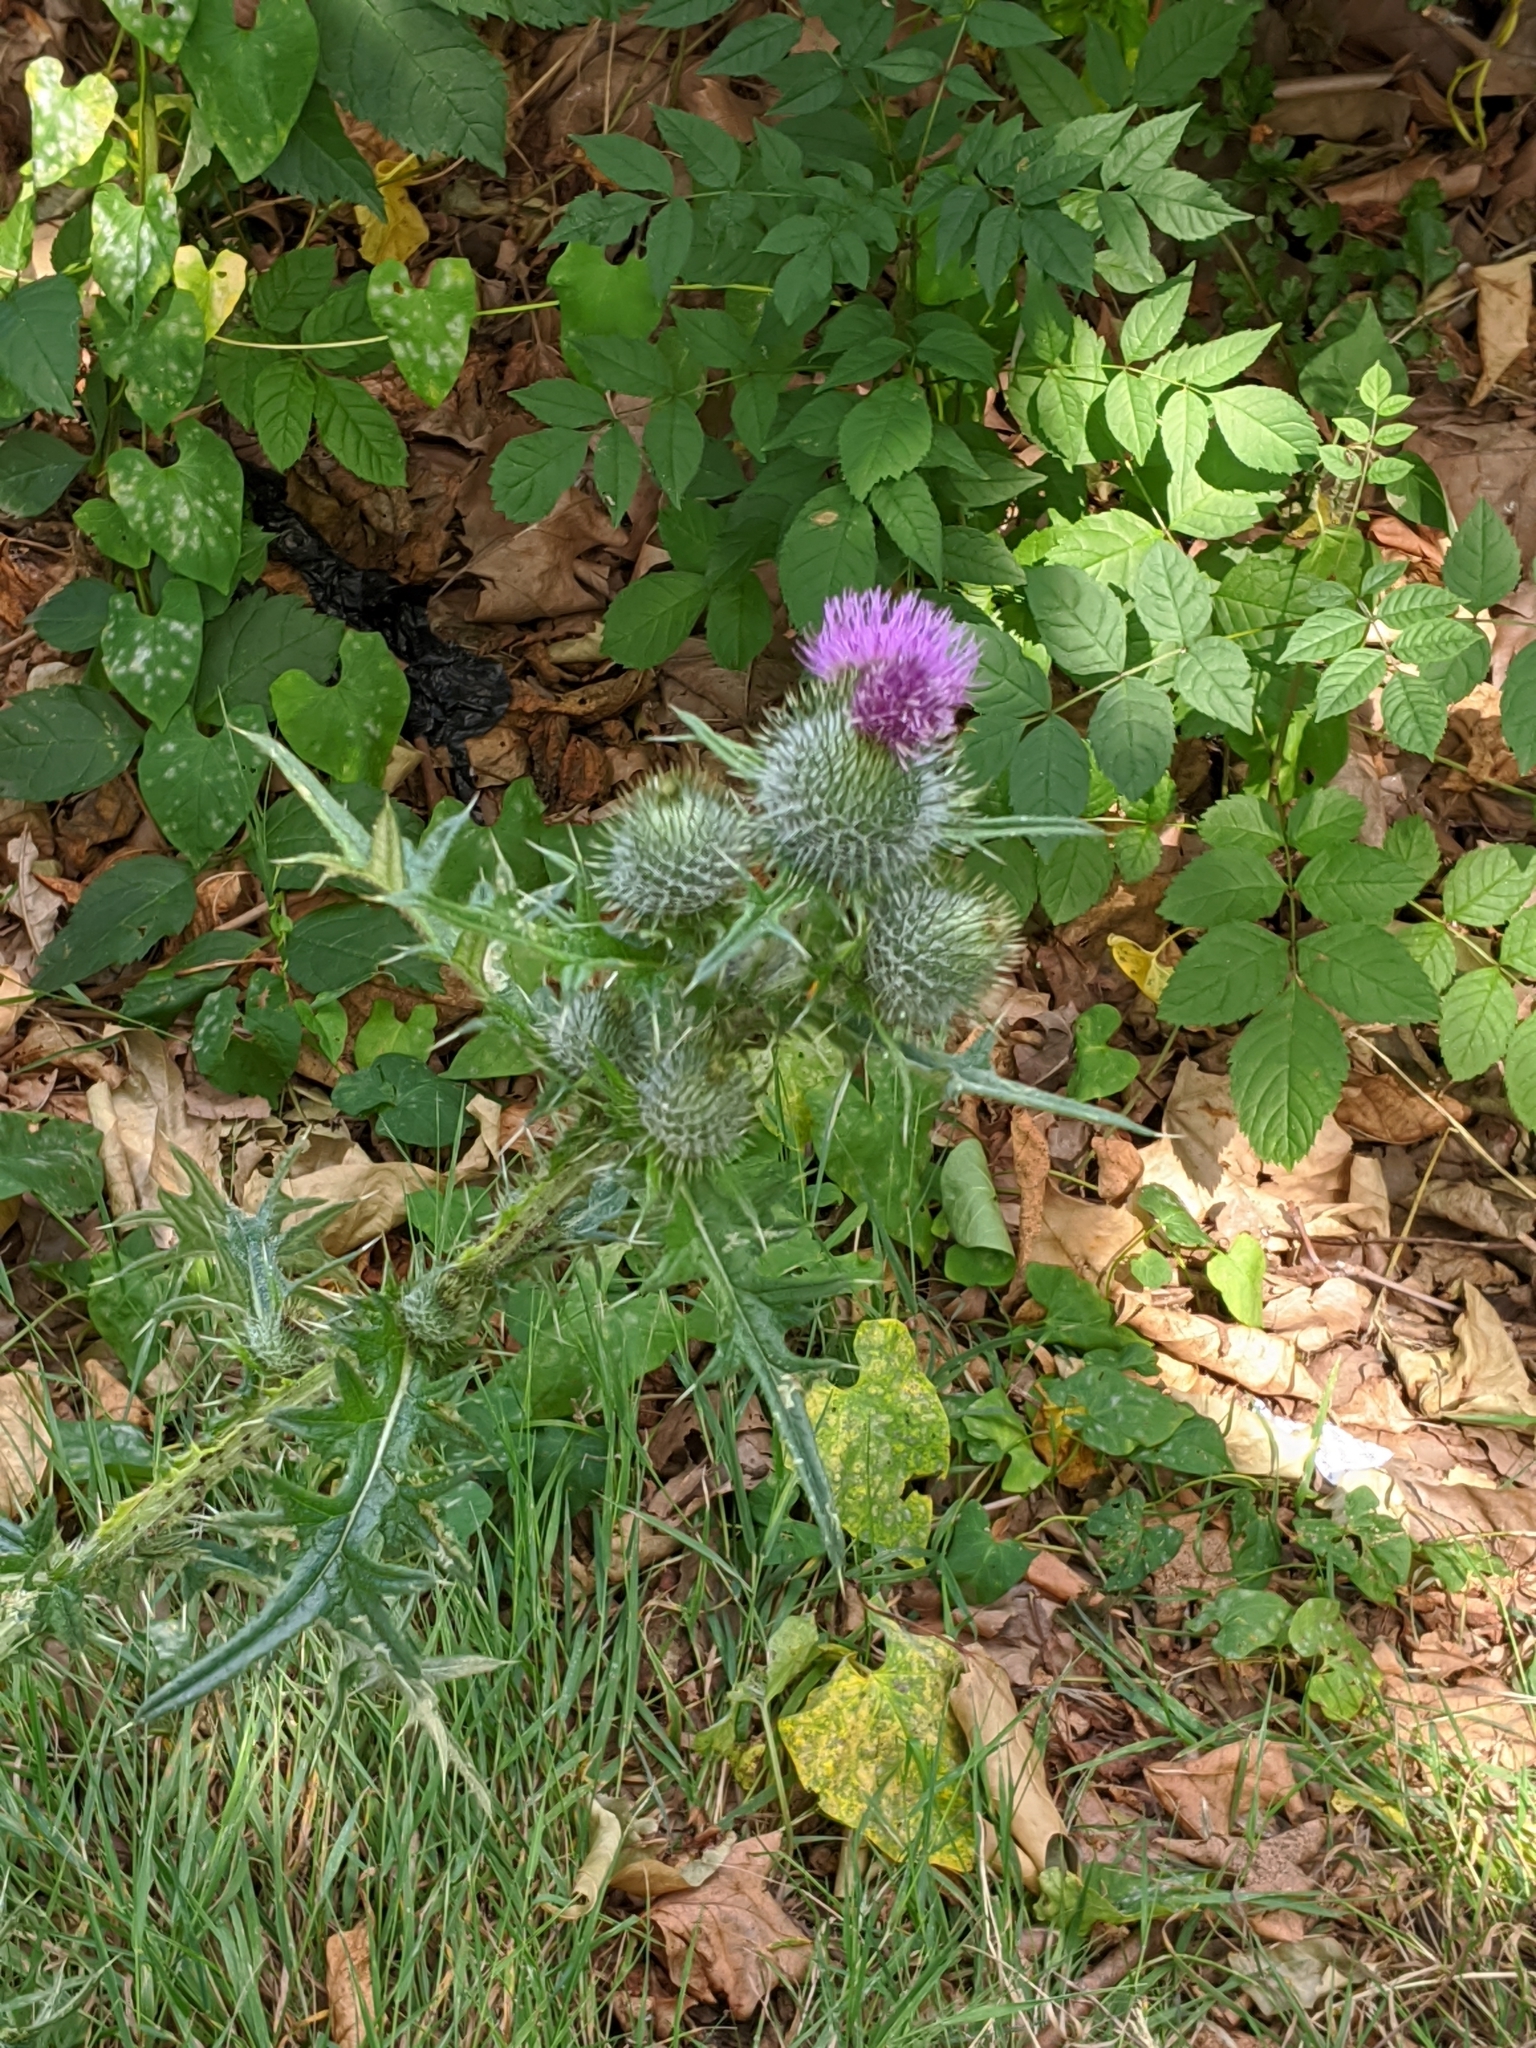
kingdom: Plantae
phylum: Tracheophyta
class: Magnoliopsida
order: Asterales
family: Asteraceae
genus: Cirsium
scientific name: Cirsium vulgare
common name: Bull thistle
